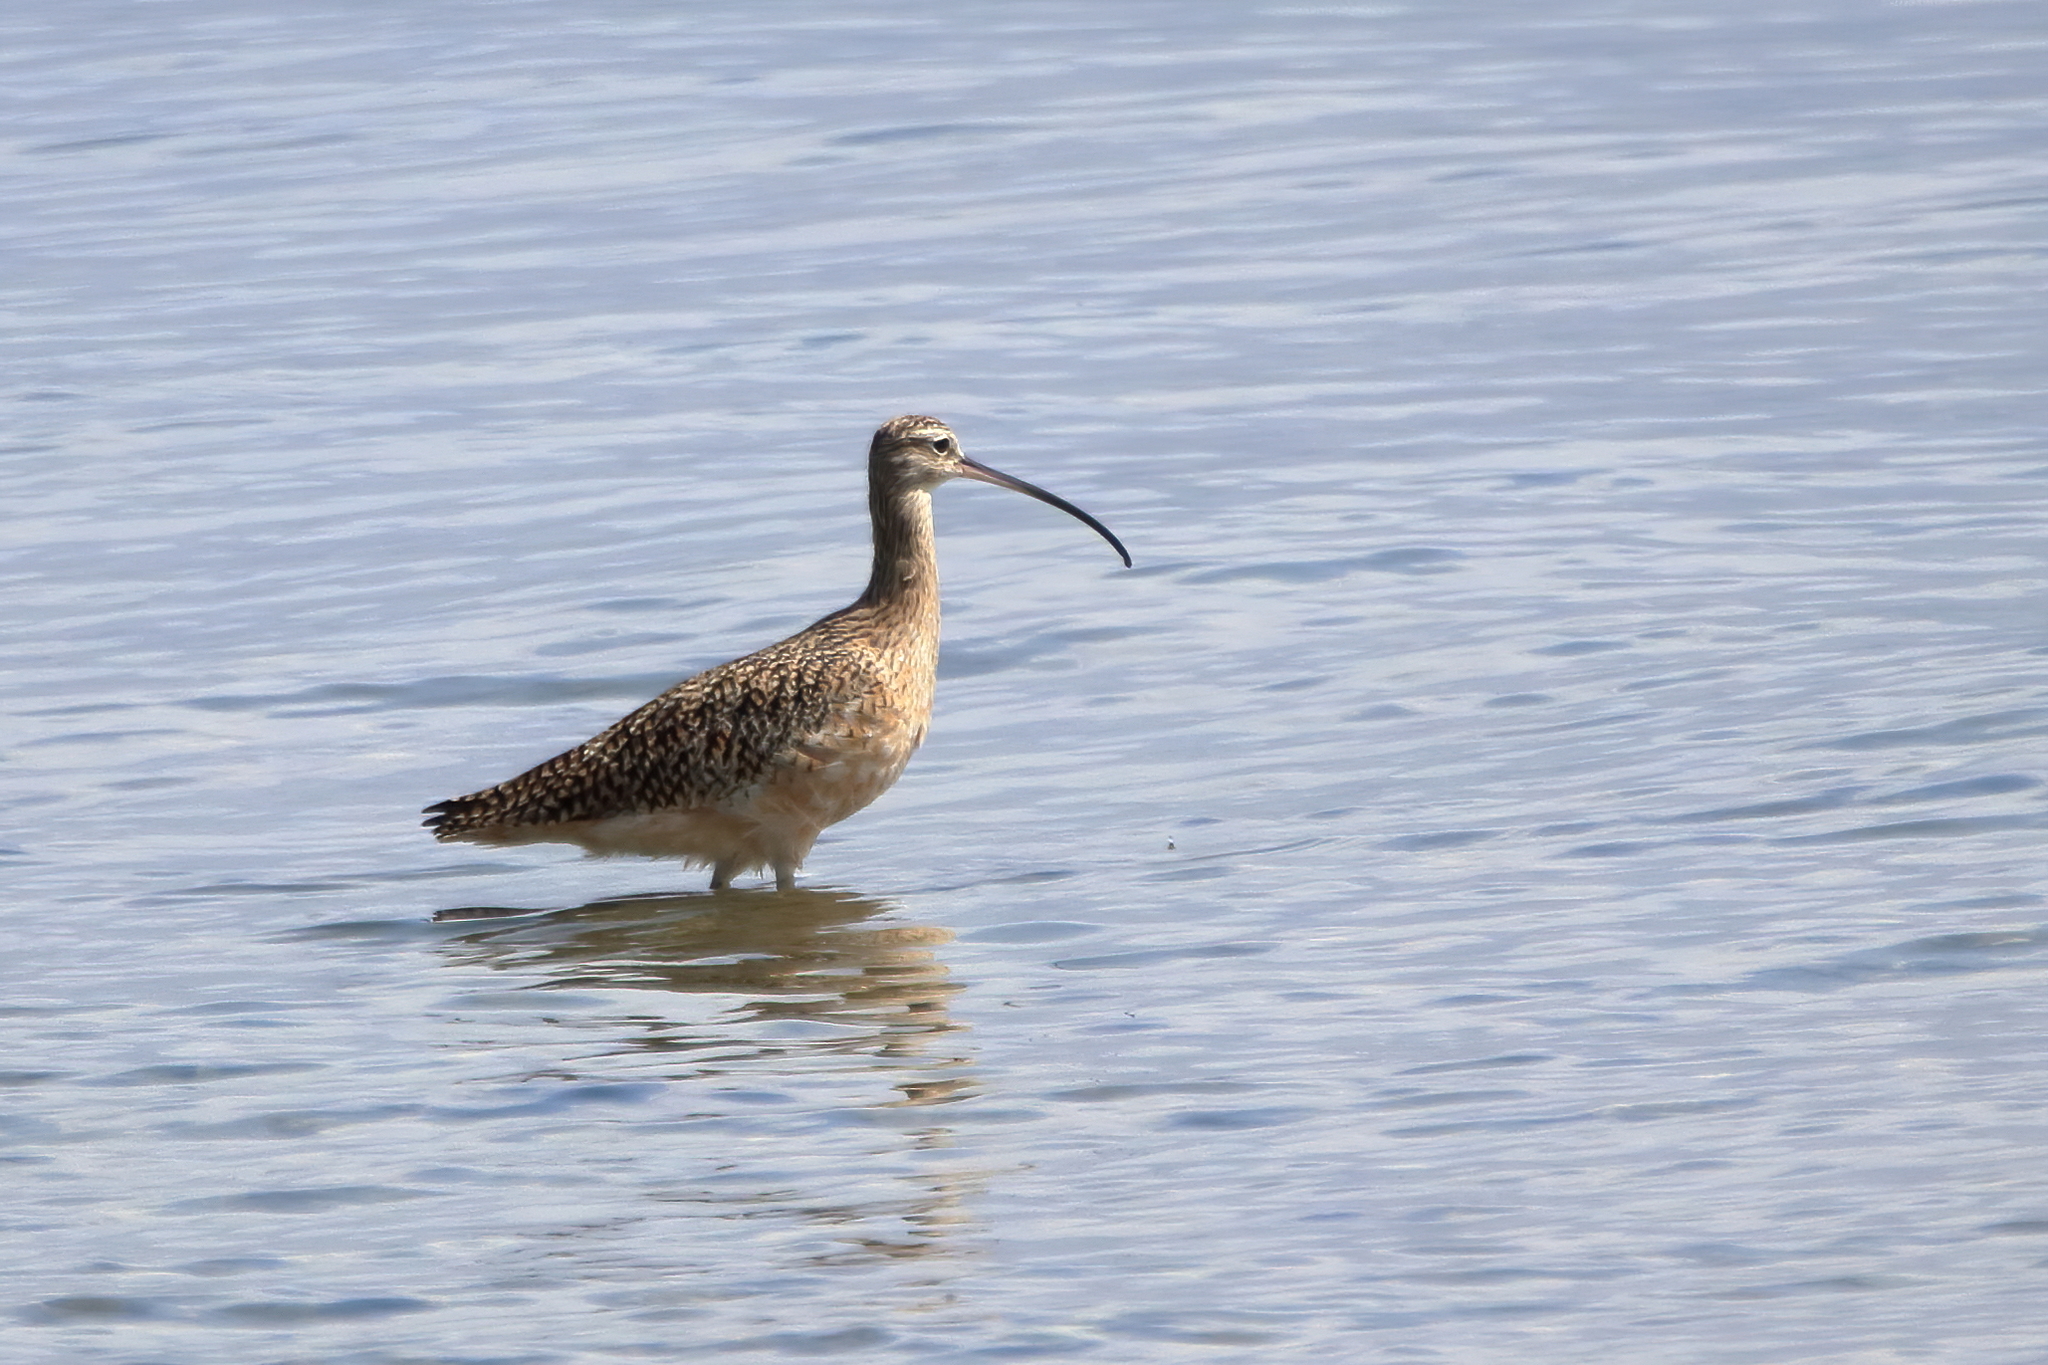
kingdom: Animalia
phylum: Chordata
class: Aves
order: Charadriiformes
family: Scolopacidae
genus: Numenius
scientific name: Numenius americanus
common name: Long-billed curlew
